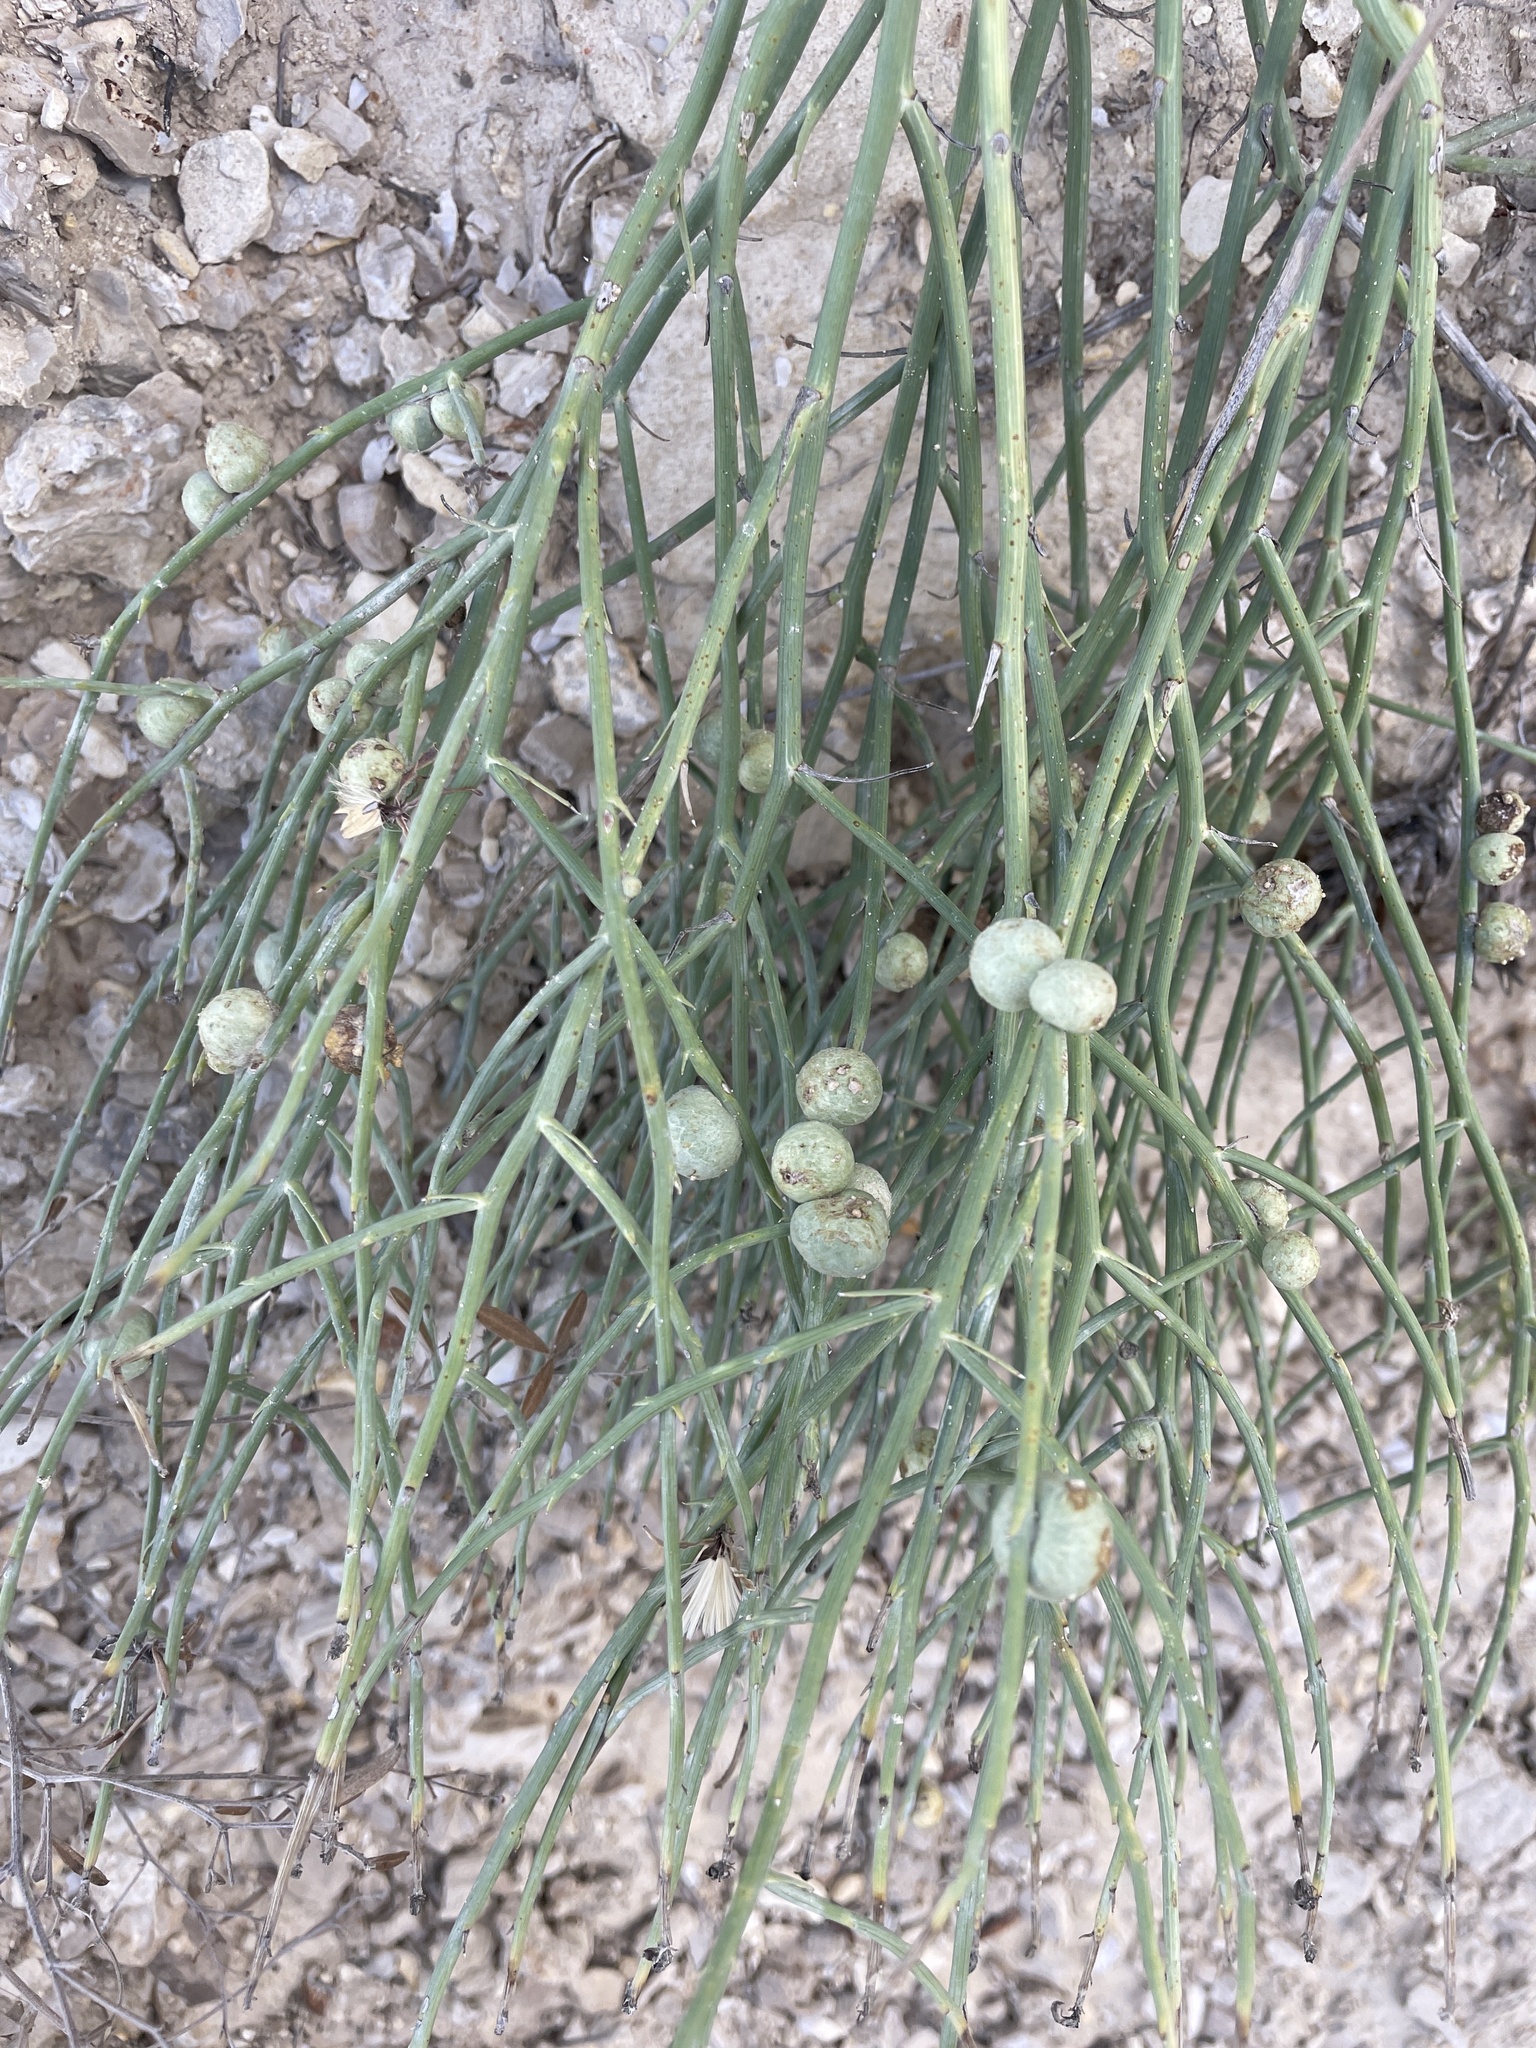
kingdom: Plantae
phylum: Tracheophyta
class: Magnoliopsida
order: Asterales
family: Asteraceae
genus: Lygodesmia
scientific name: Lygodesmia juncea
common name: Common skeletonweed
